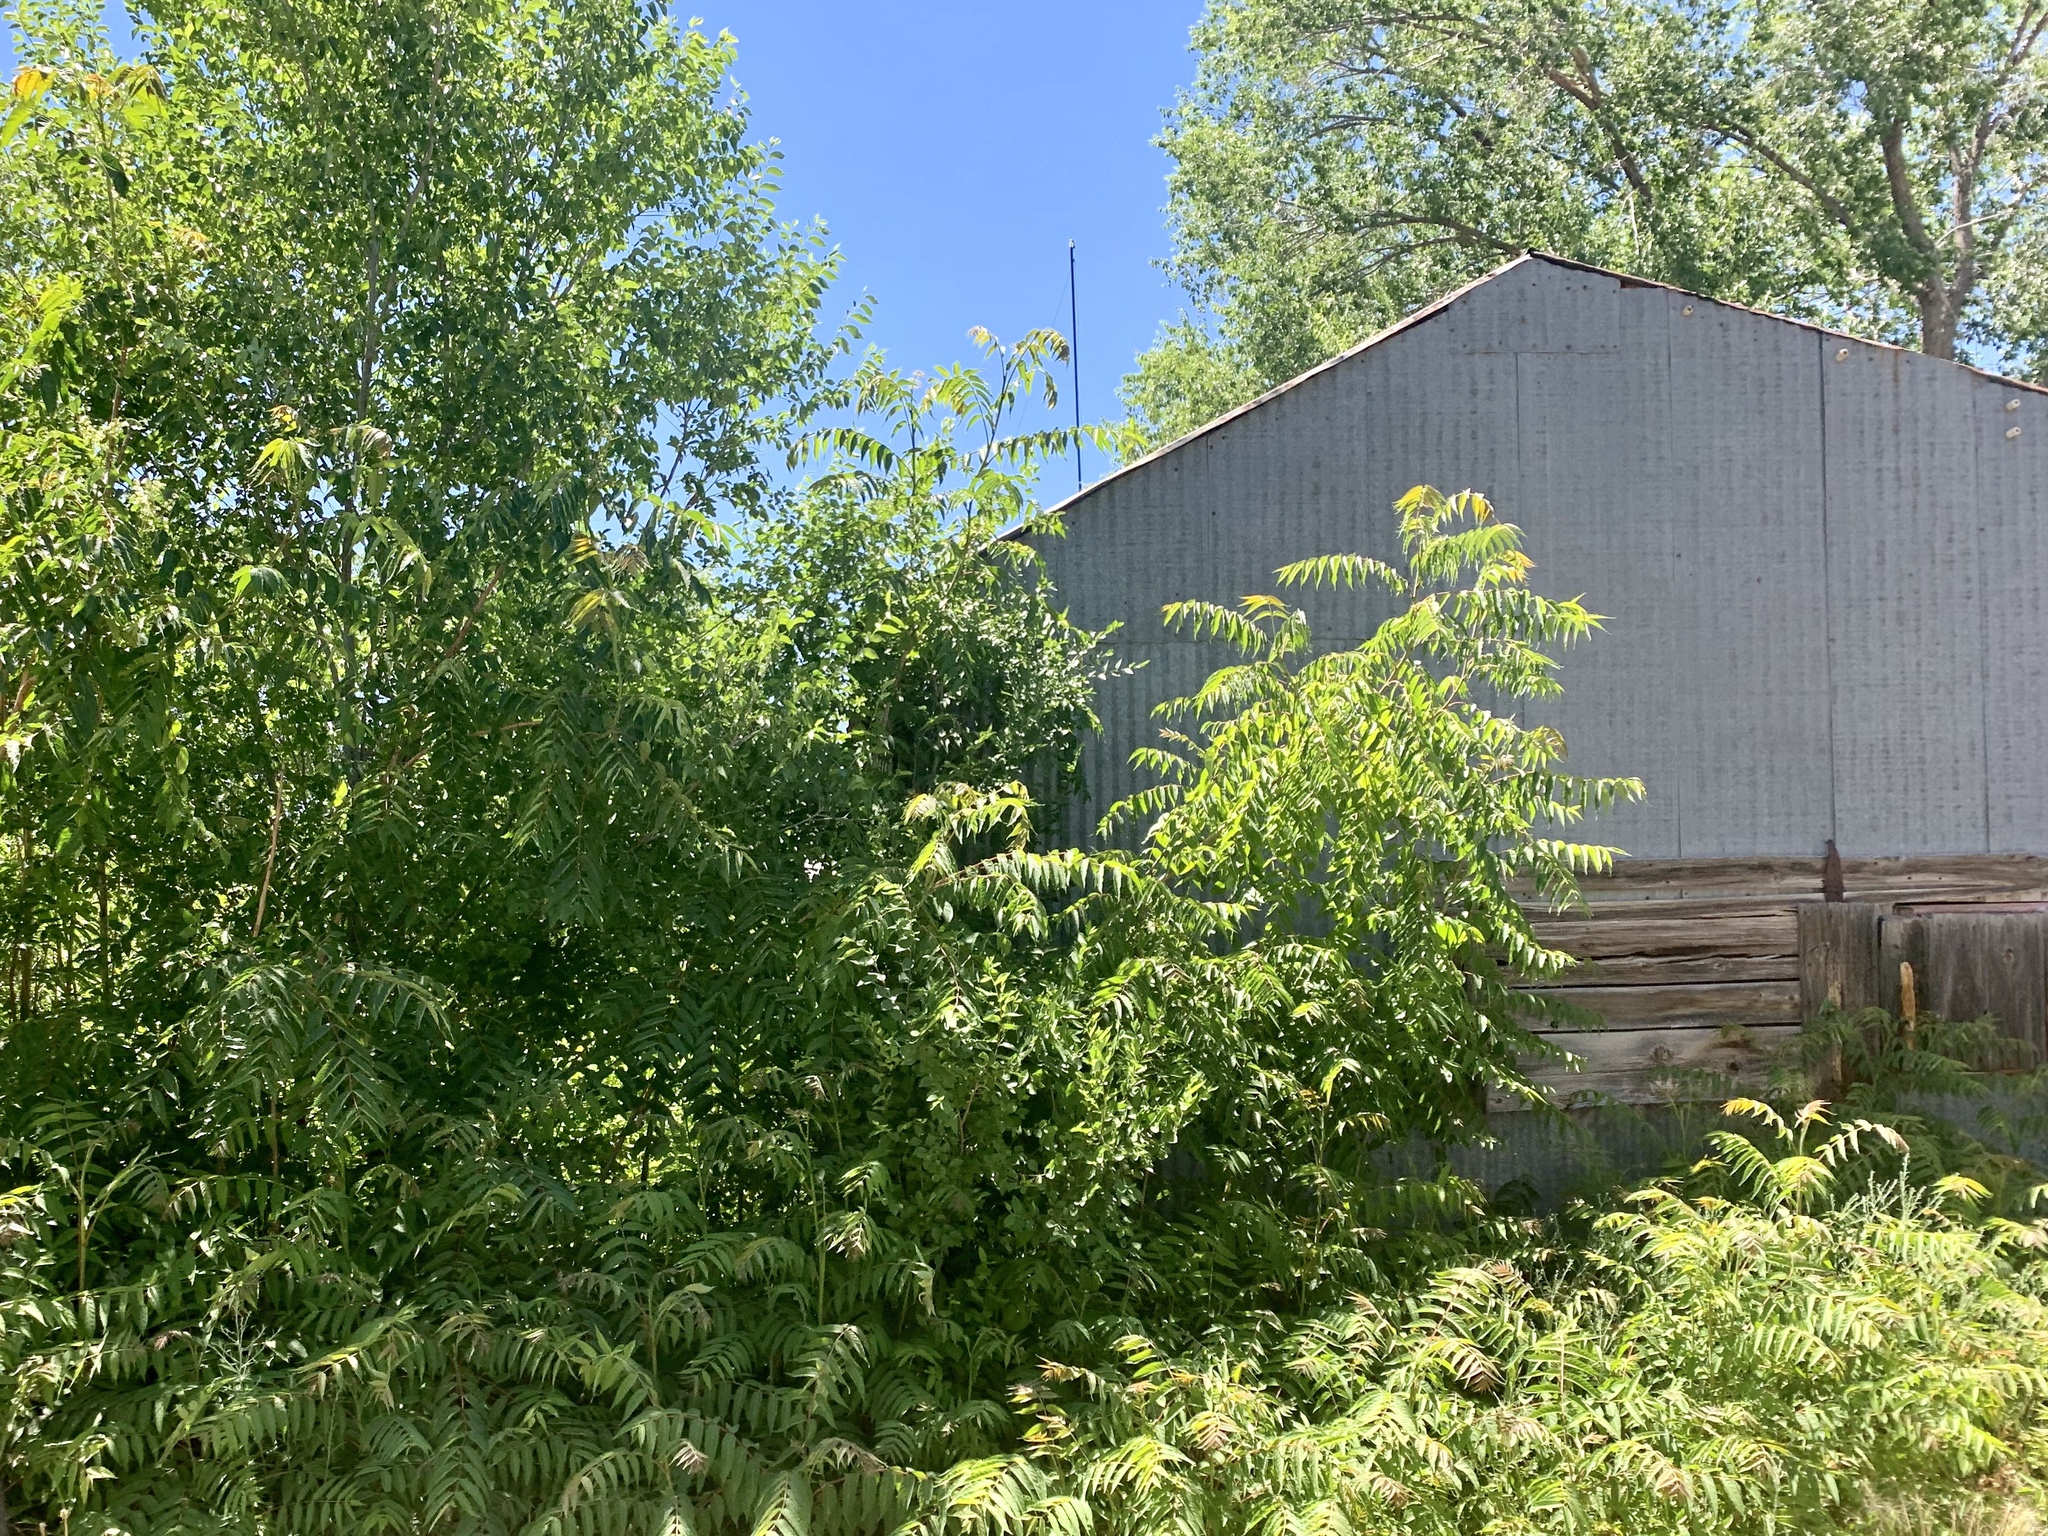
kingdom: Plantae
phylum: Tracheophyta
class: Magnoliopsida
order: Sapindales
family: Simaroubaceae
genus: Ailanthus
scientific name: Ailanthus altissima
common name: Tree-of-heaven
